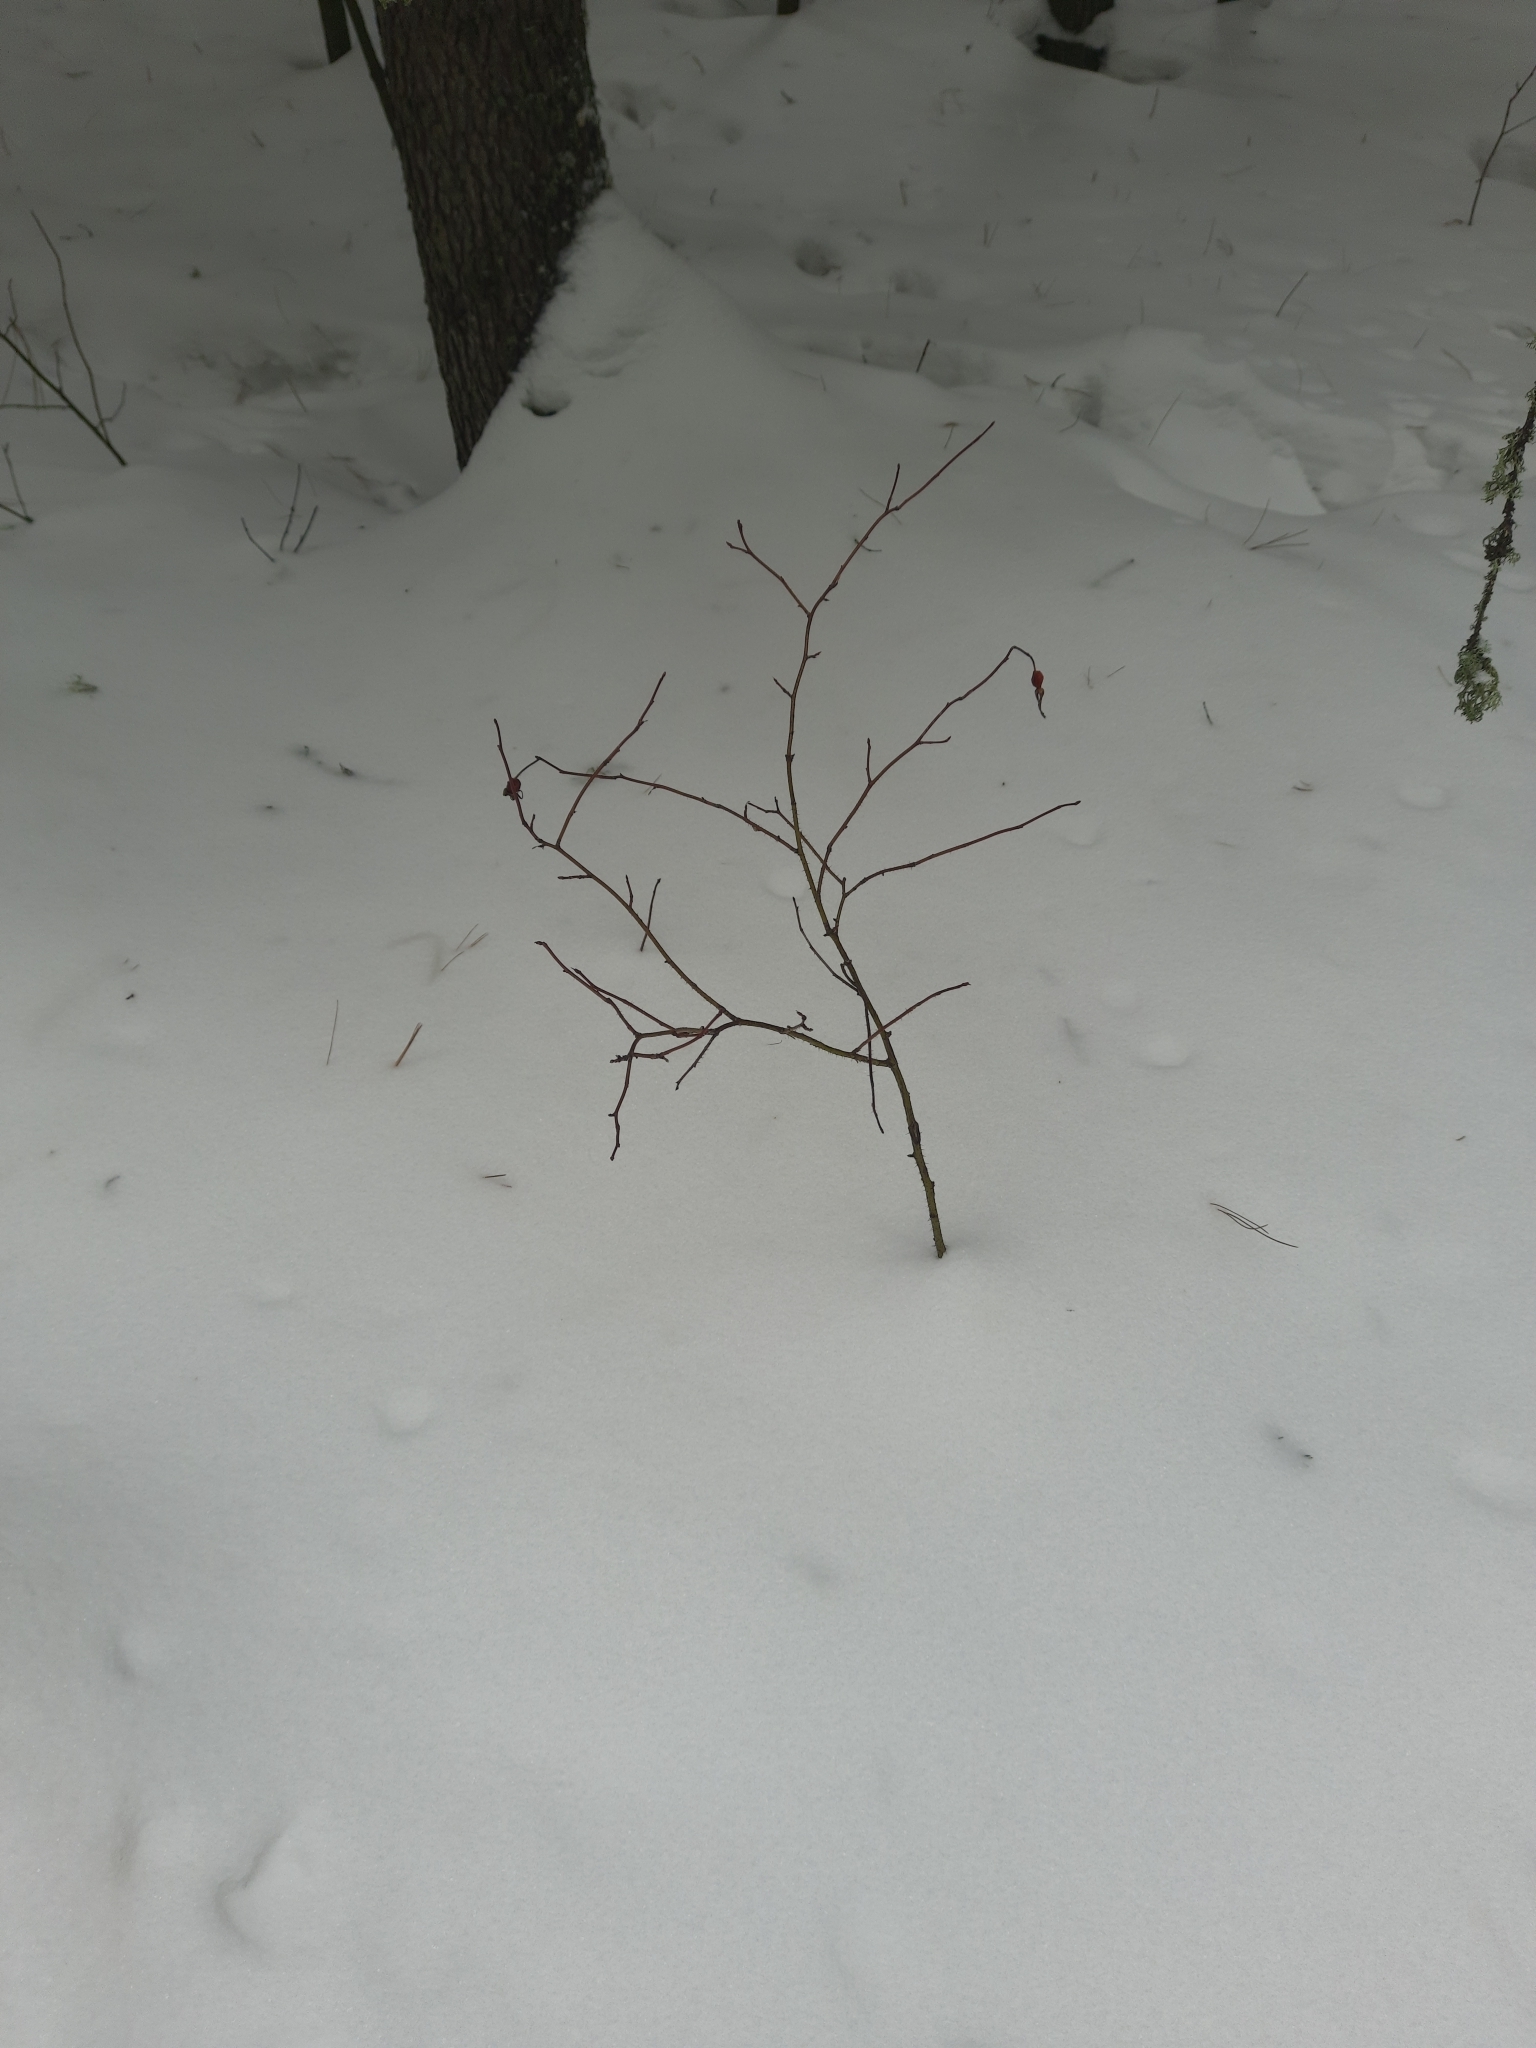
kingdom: Plantae
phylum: Tracheophyta
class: Magnoliopsida
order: Rosales
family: Rosaceae
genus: Rosa
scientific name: Rosa acicularis
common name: Prickly rose
